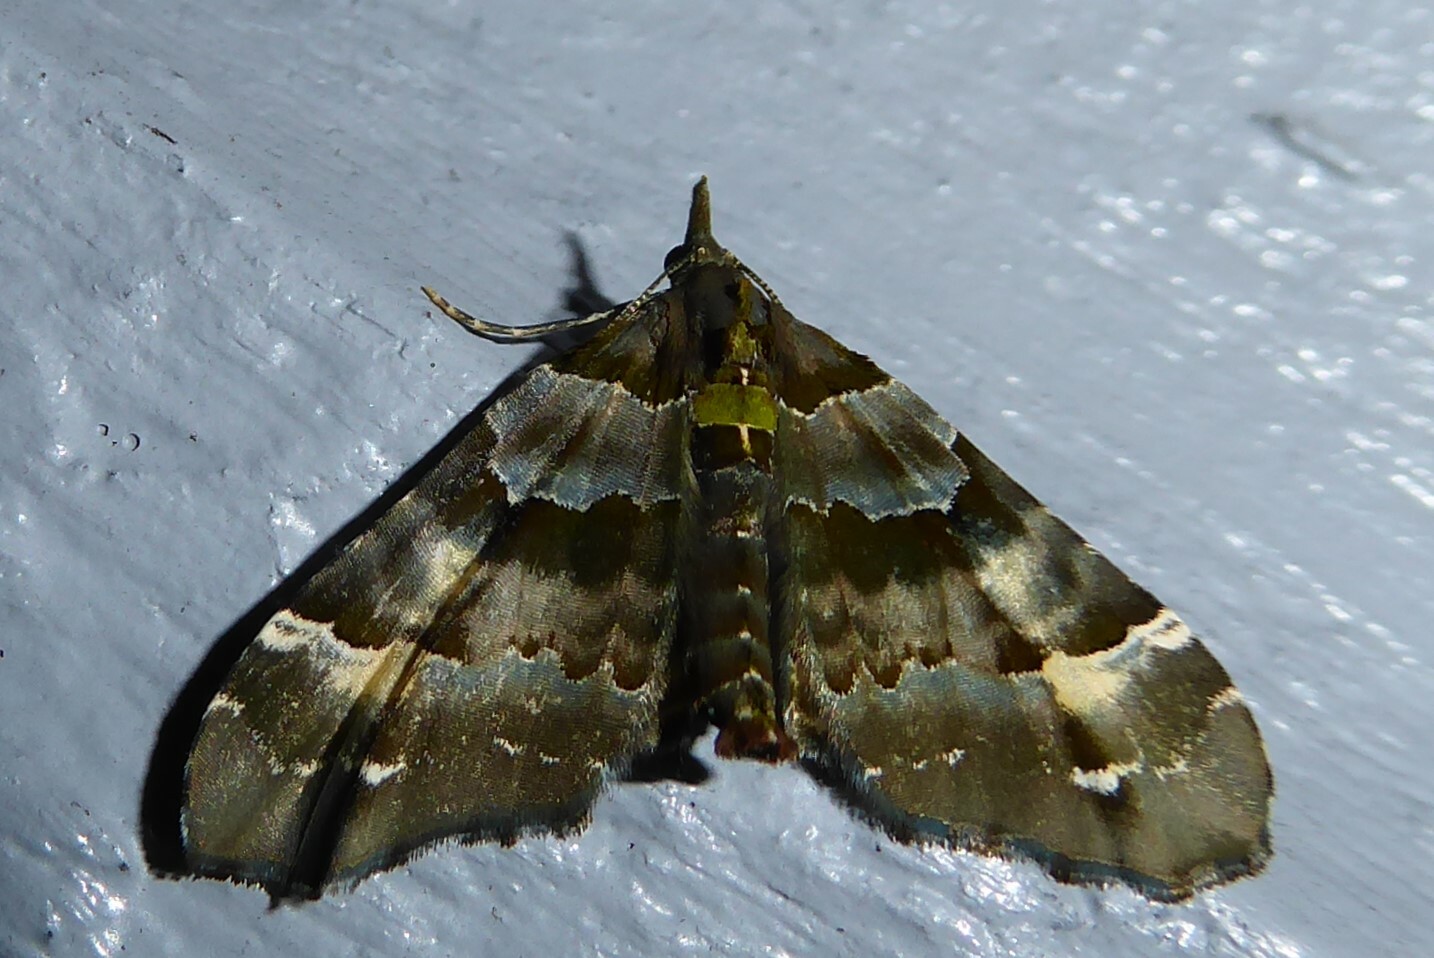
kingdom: Animalia
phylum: Arthropoda
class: Insecta
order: Lepidoptera
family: Geometridae
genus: Elvia
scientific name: Elvia glaucata
